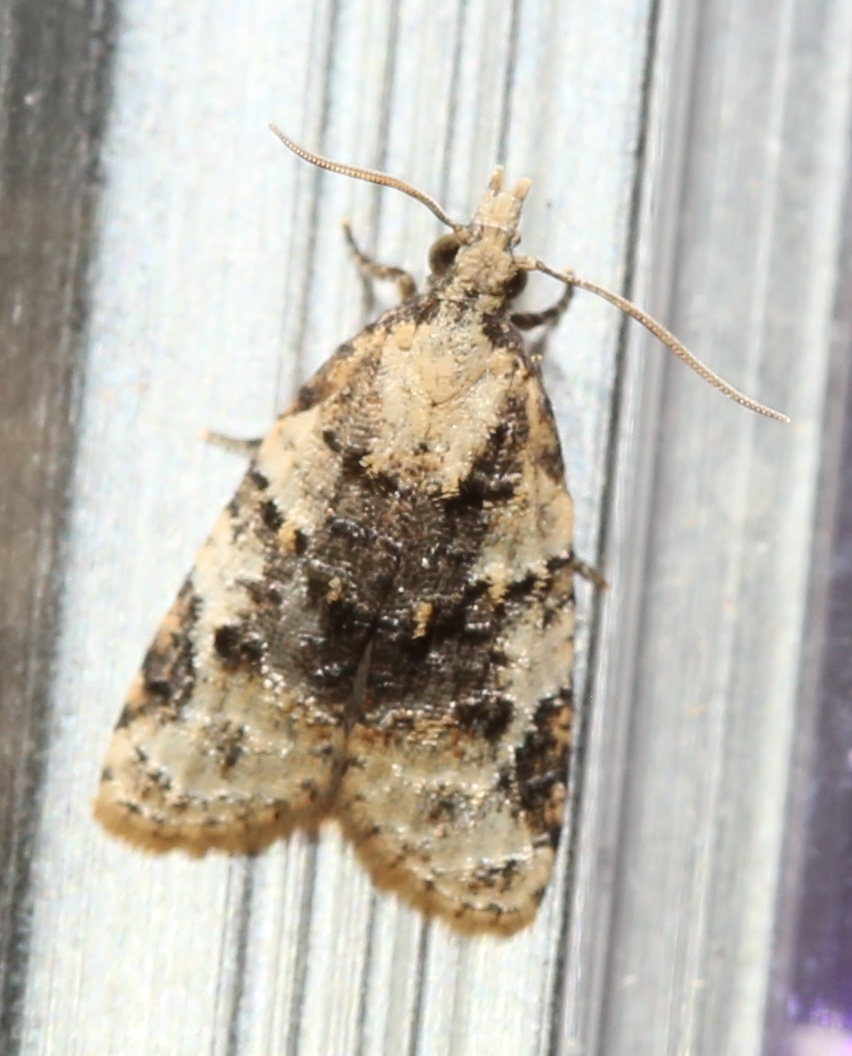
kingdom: Animalia
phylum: Arthropoda
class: Insecta
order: Lepidoptera
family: Tortricidae
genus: Platynota
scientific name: Platynota exasperatana
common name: Exasperating platynota moth
